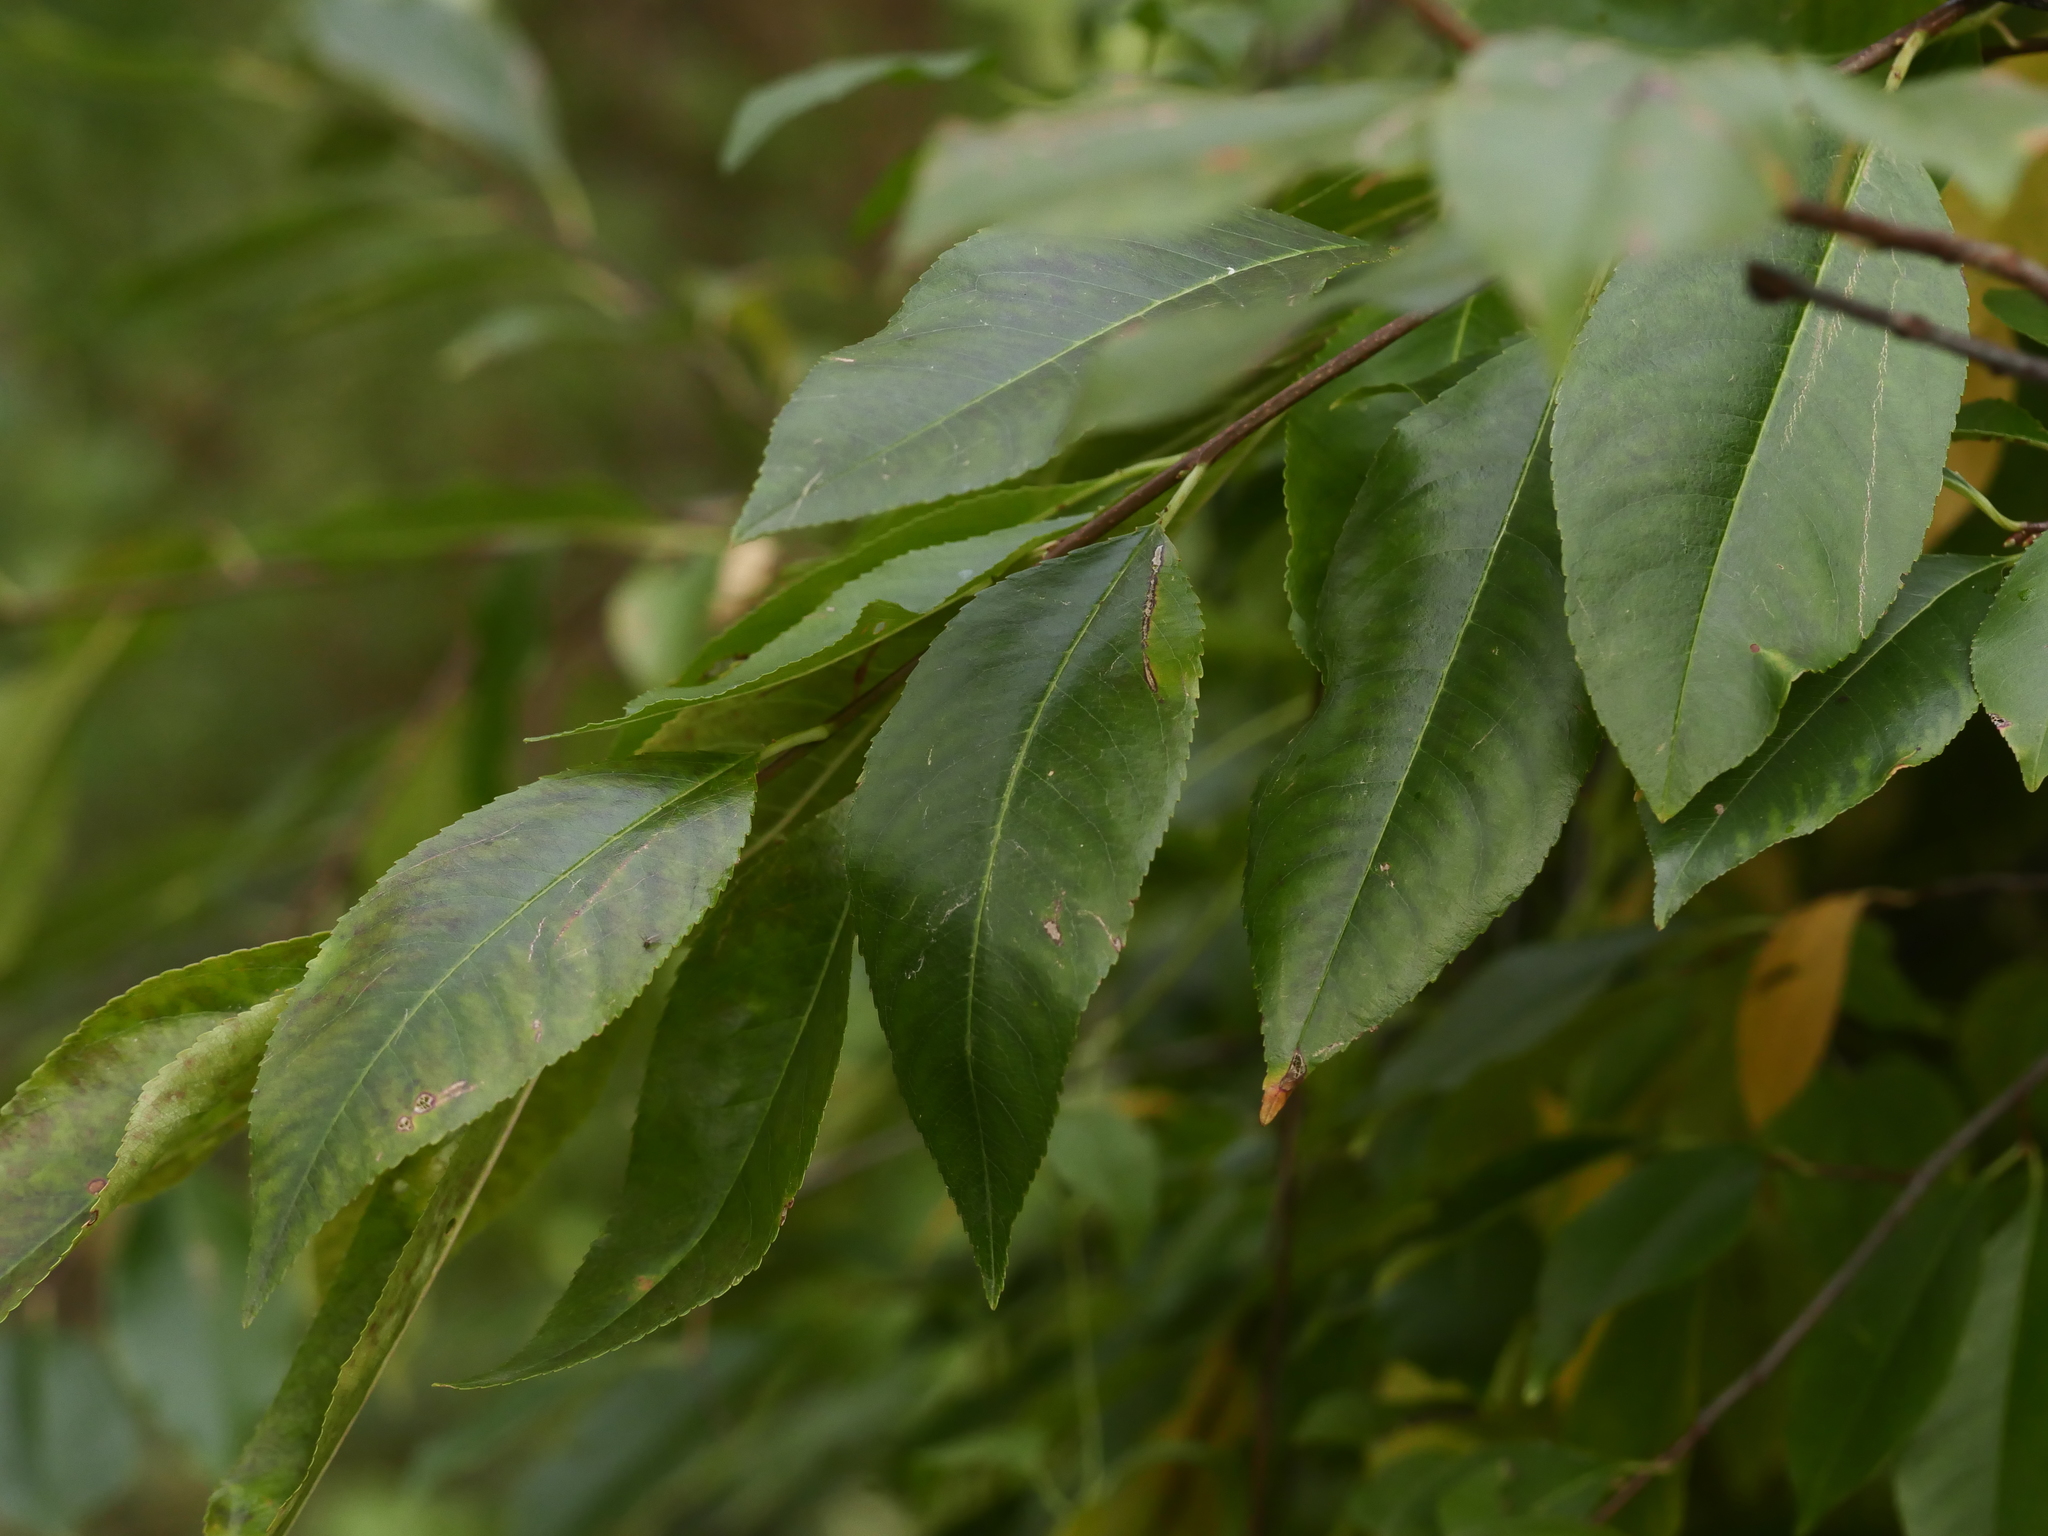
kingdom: Plantae
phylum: Tracheophyta
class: Magnoliopsida
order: Rosales
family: Rosaceae
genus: Prunus
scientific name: Prunus serotina
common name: Black cherry
